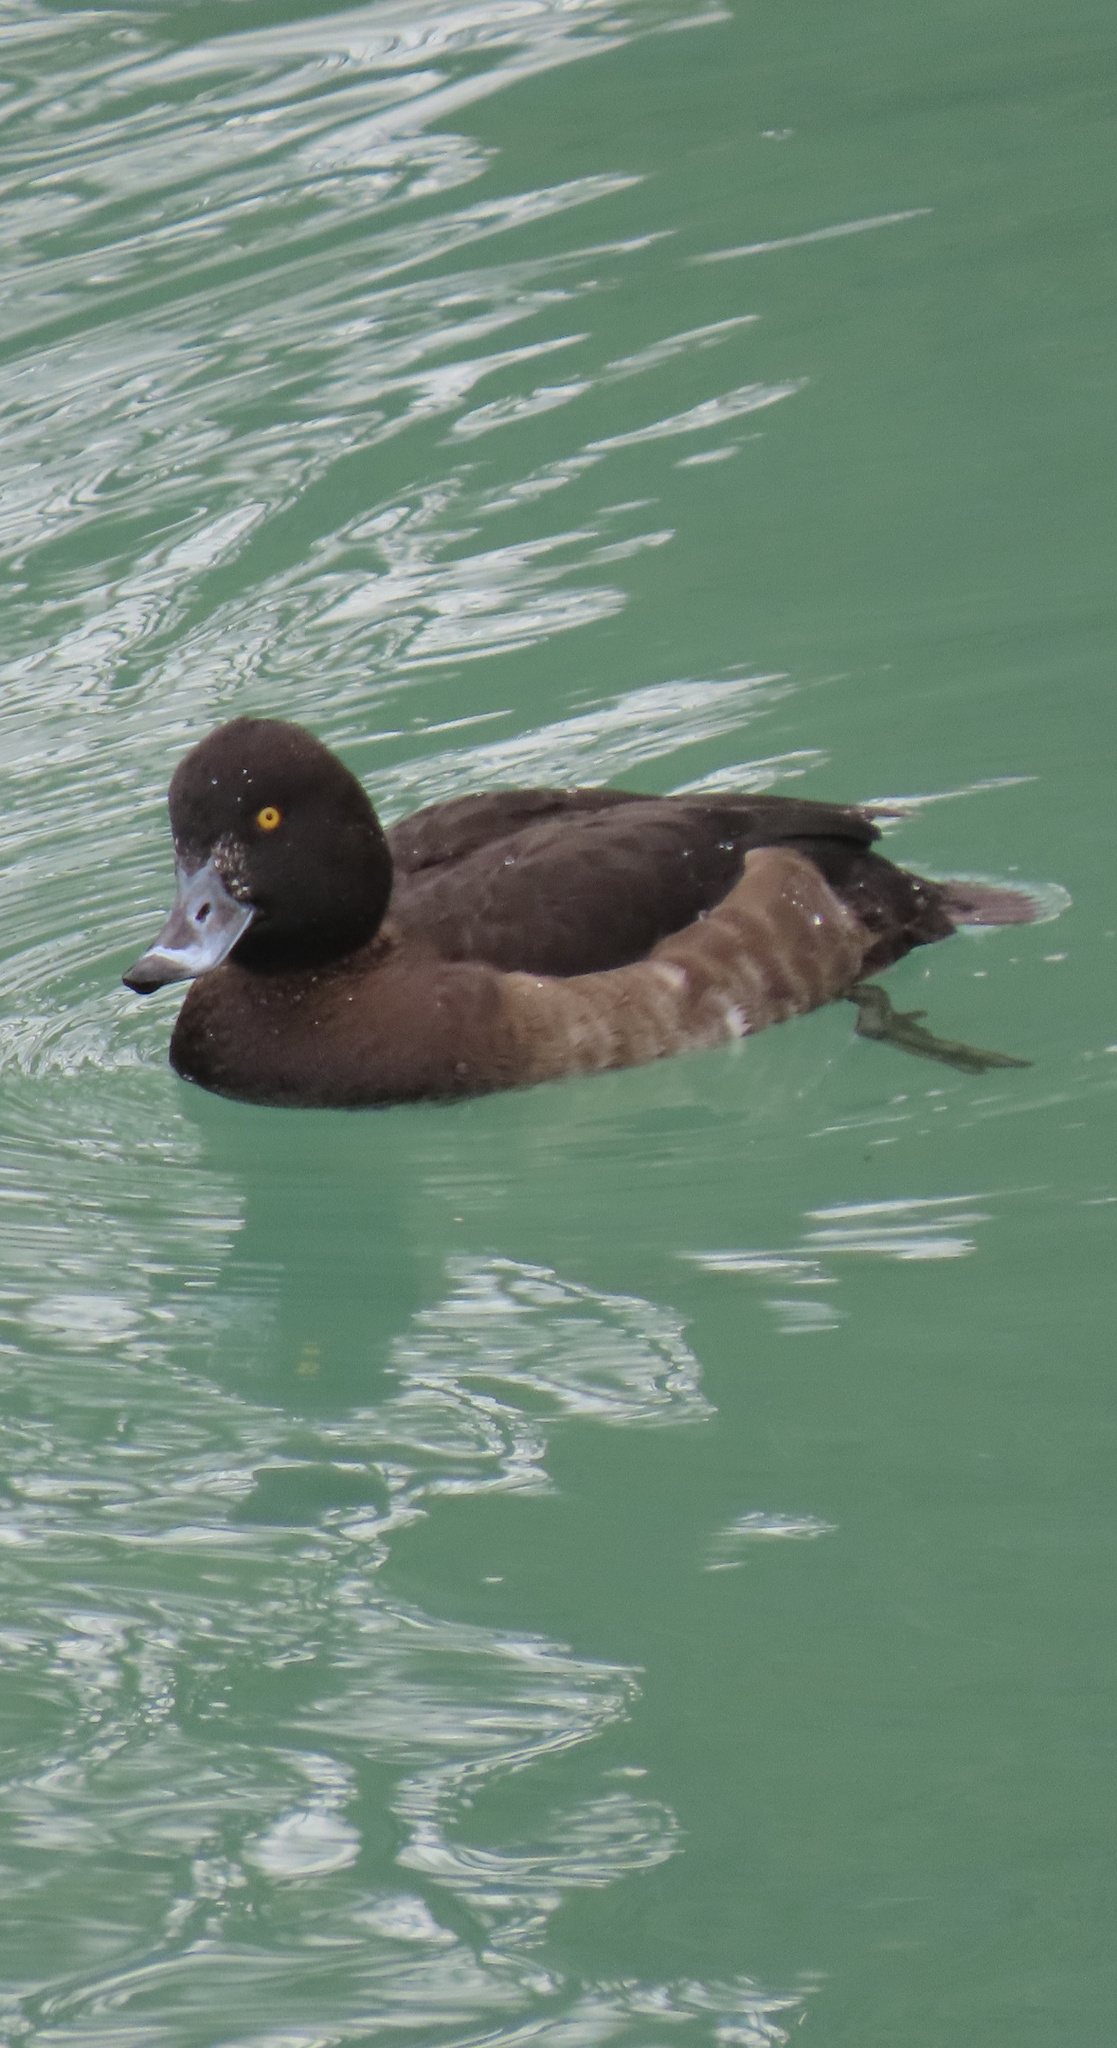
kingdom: Animalia
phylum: Chordata
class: Aves
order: Anseriformes
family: Anatidae
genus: Aythya
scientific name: Aythya fuligula
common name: Tufted duck
